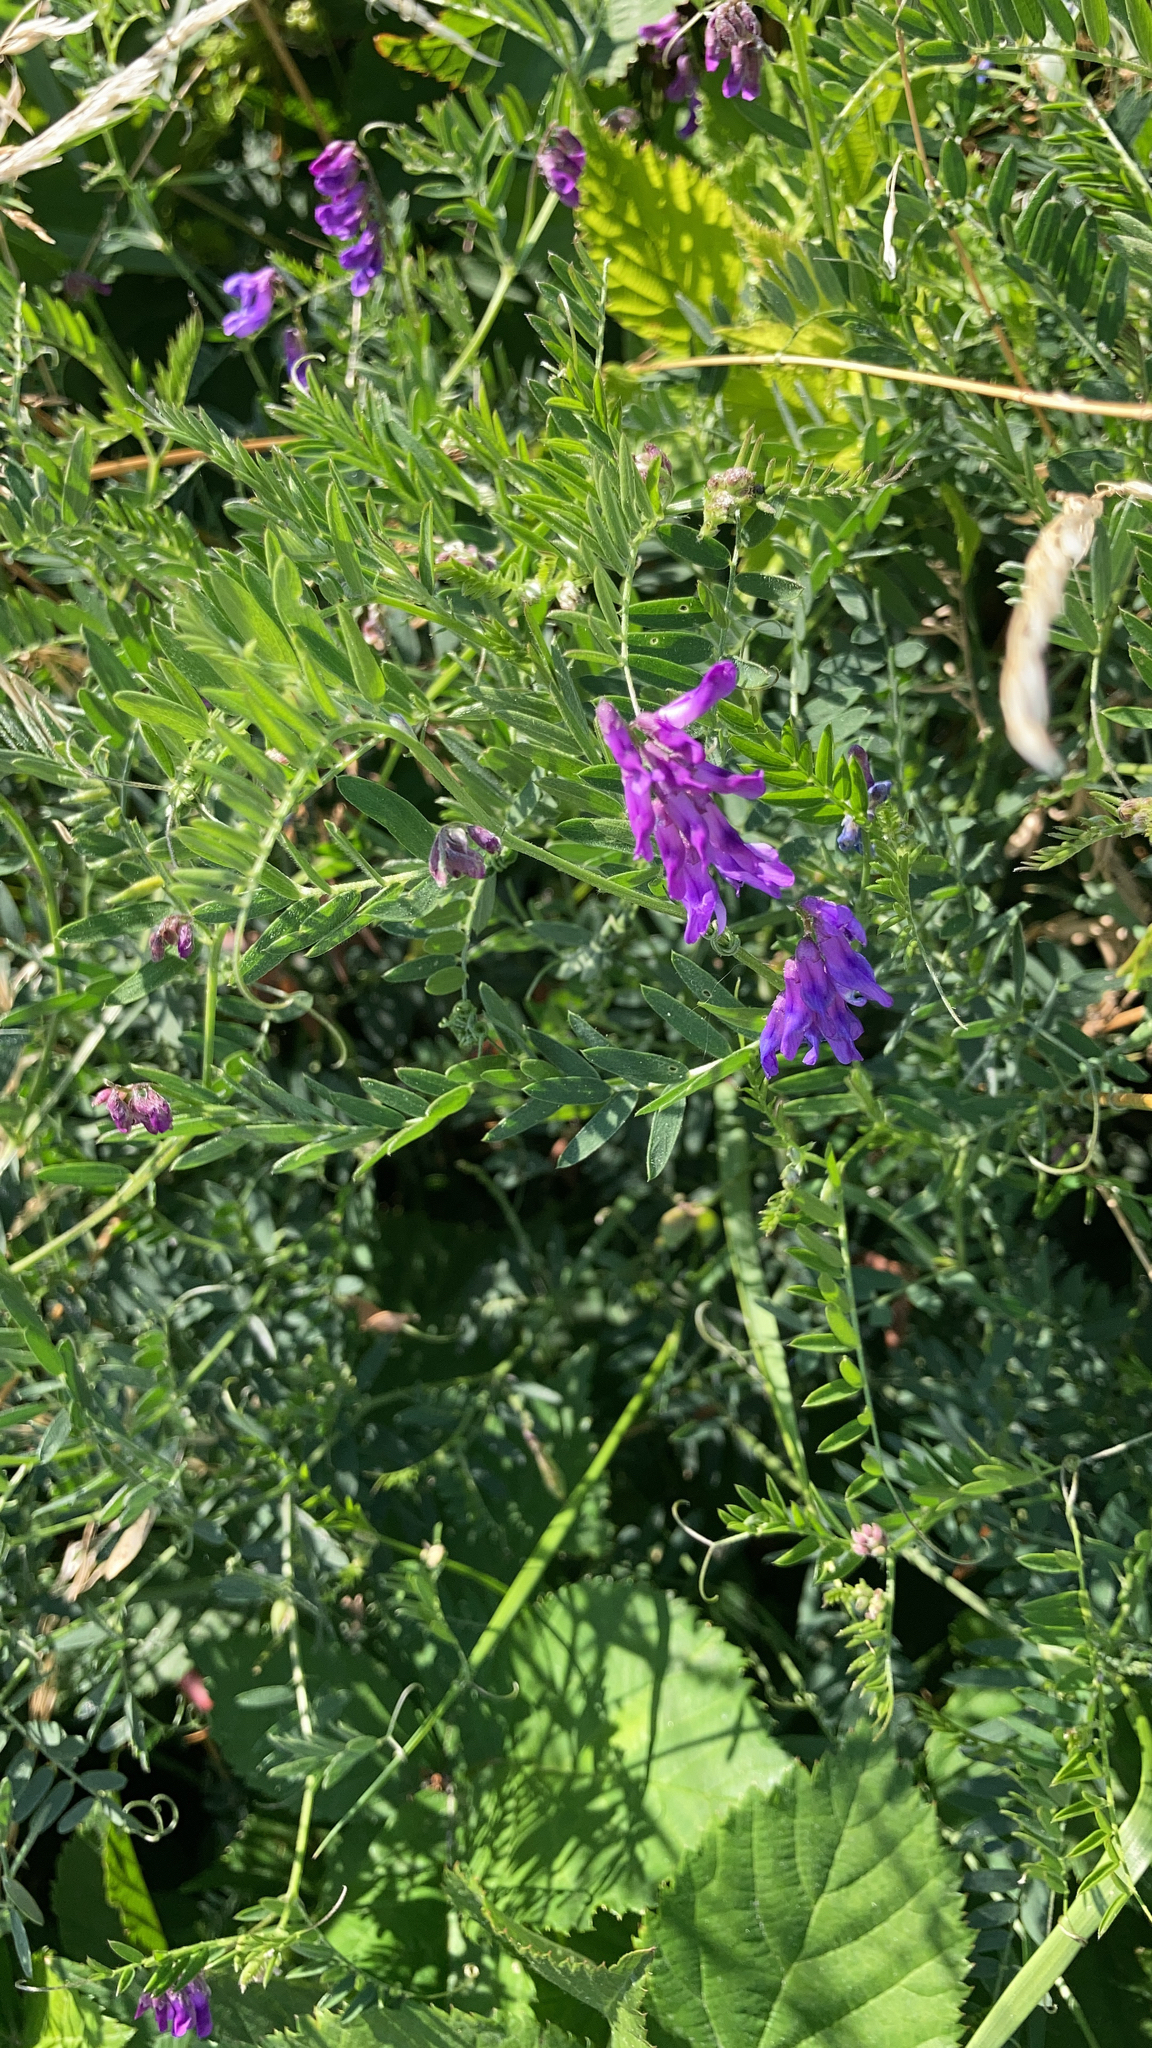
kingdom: Plantae
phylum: Tracheophyta
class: Magnoliopsida
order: Fabales
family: Fabaceae
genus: Vicia
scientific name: Vicia cracca
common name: Bird vetch
